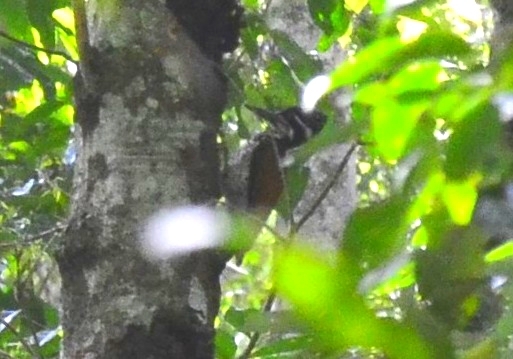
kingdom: Animalia
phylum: Chordata
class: Aves
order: Piciformes
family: Picidae
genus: Chrysocolaptes
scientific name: Chrysocolaptes socialis
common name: Malabar flameback
